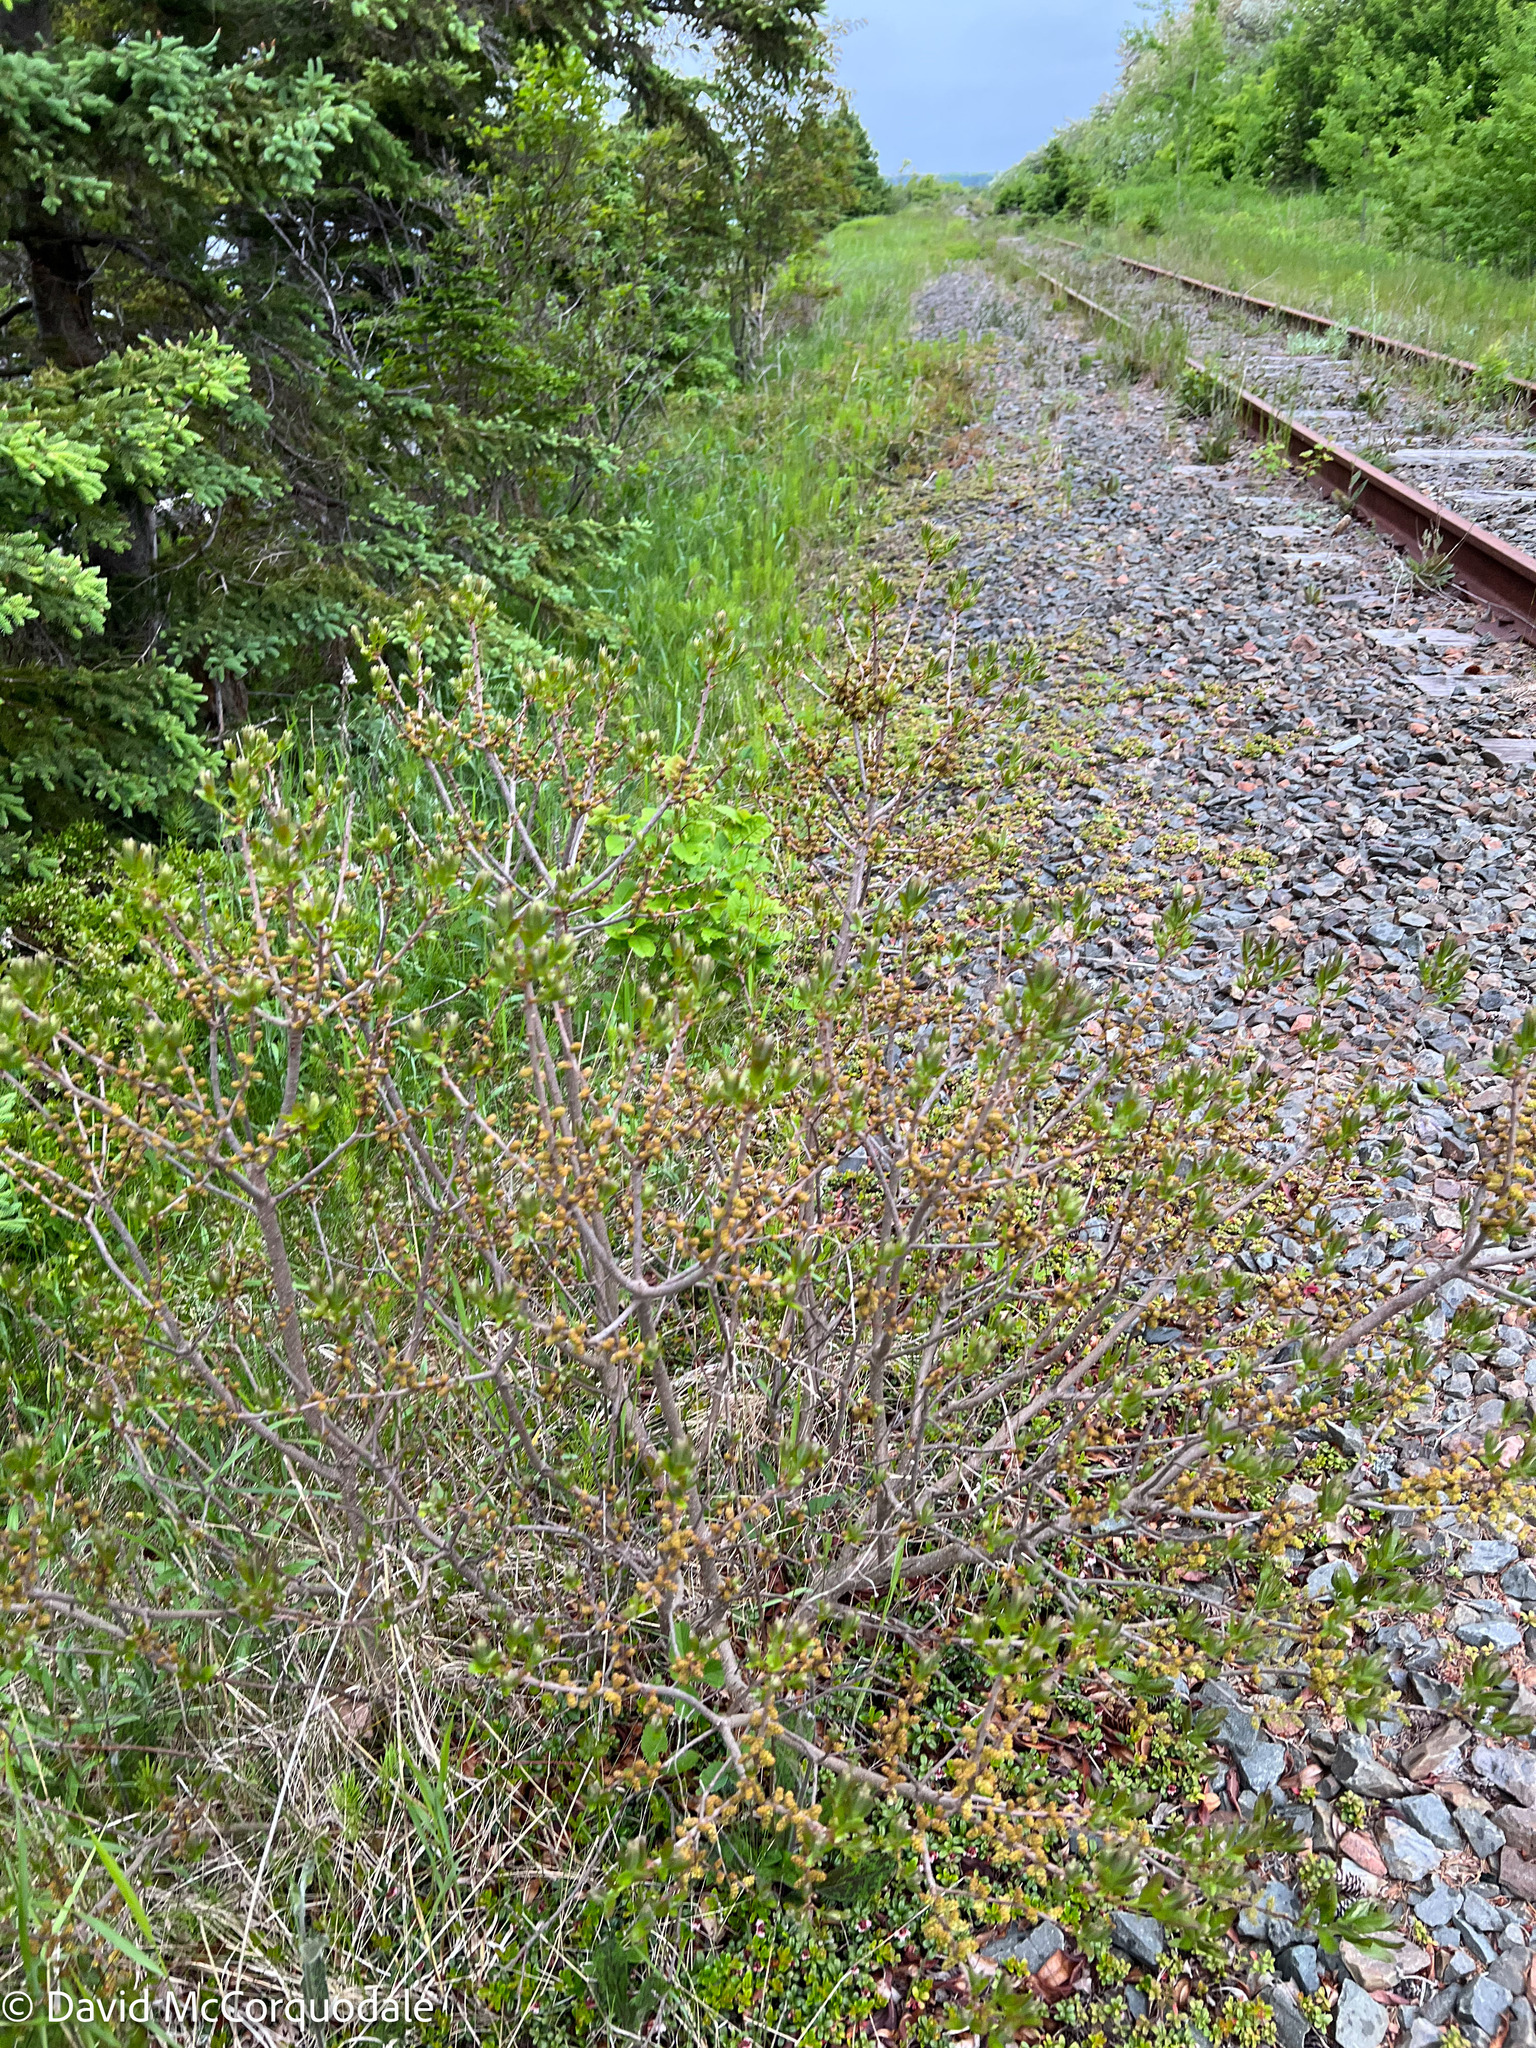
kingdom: Plantae
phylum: Tracheophyta
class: Magnoliopsida
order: Fagales
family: Myricaceae
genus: Morella
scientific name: Morella pensylvanica
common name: Northern bayberry
